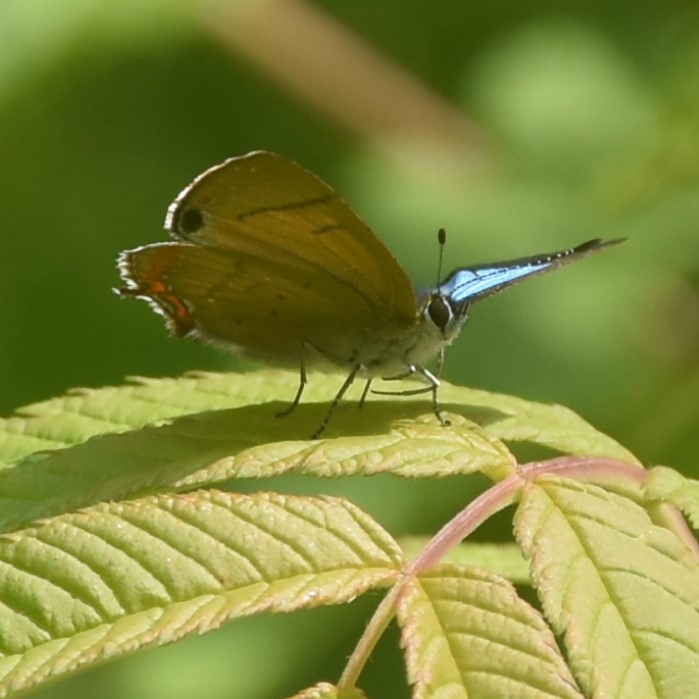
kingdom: Animalia
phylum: Arthropoda
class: Insecta
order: Lepidoptera
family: Lycaenidae
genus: Heliophorus
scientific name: Heliophorus
